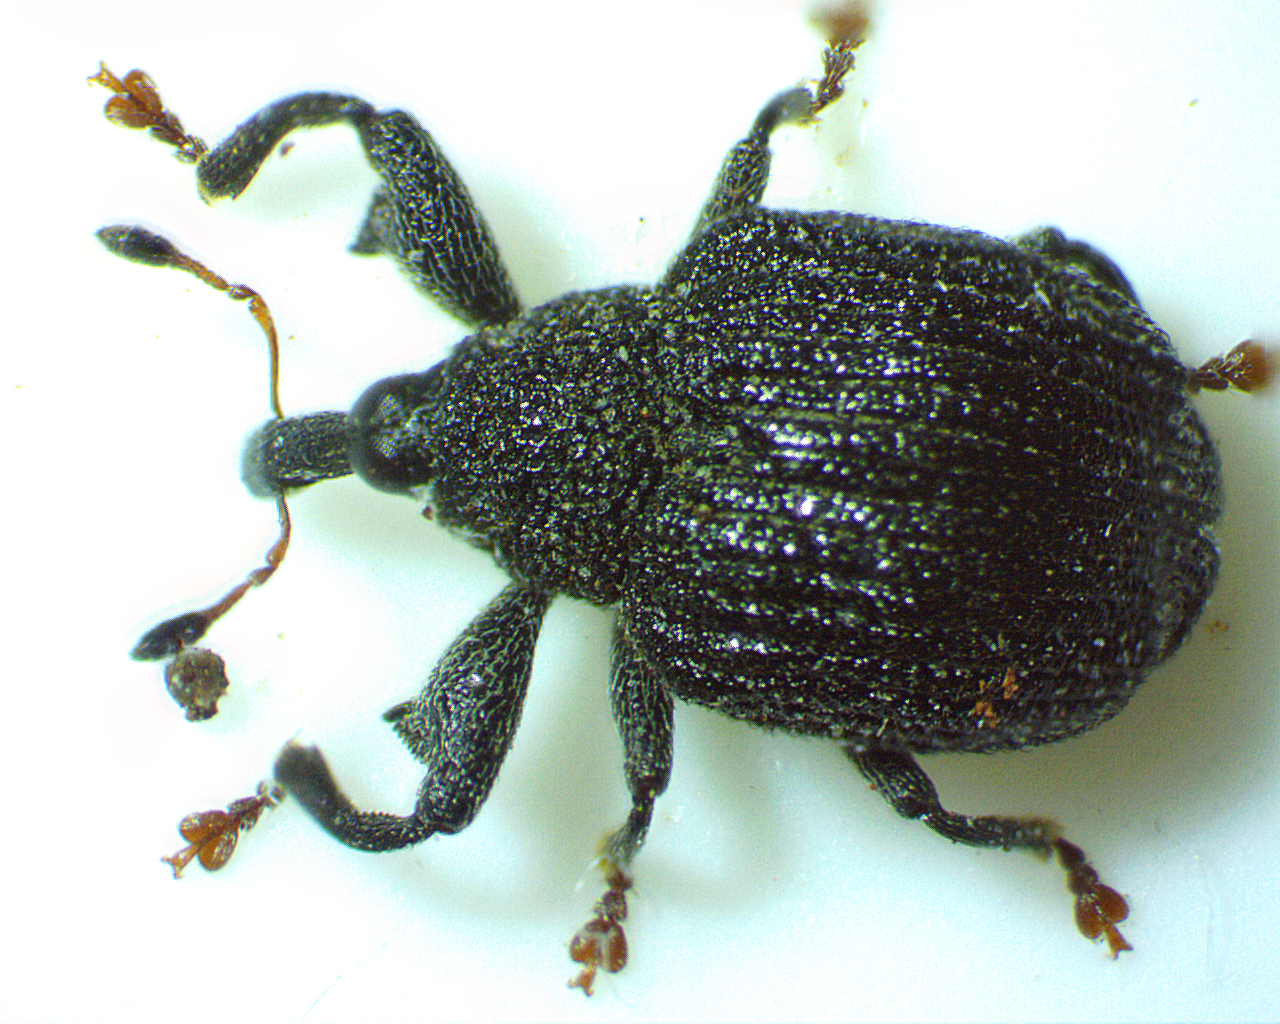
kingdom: Animalia
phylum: Arthropoda
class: Insecta
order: Coleoptera
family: Curculionidae
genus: Odontopus
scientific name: Odontopus calceatus
